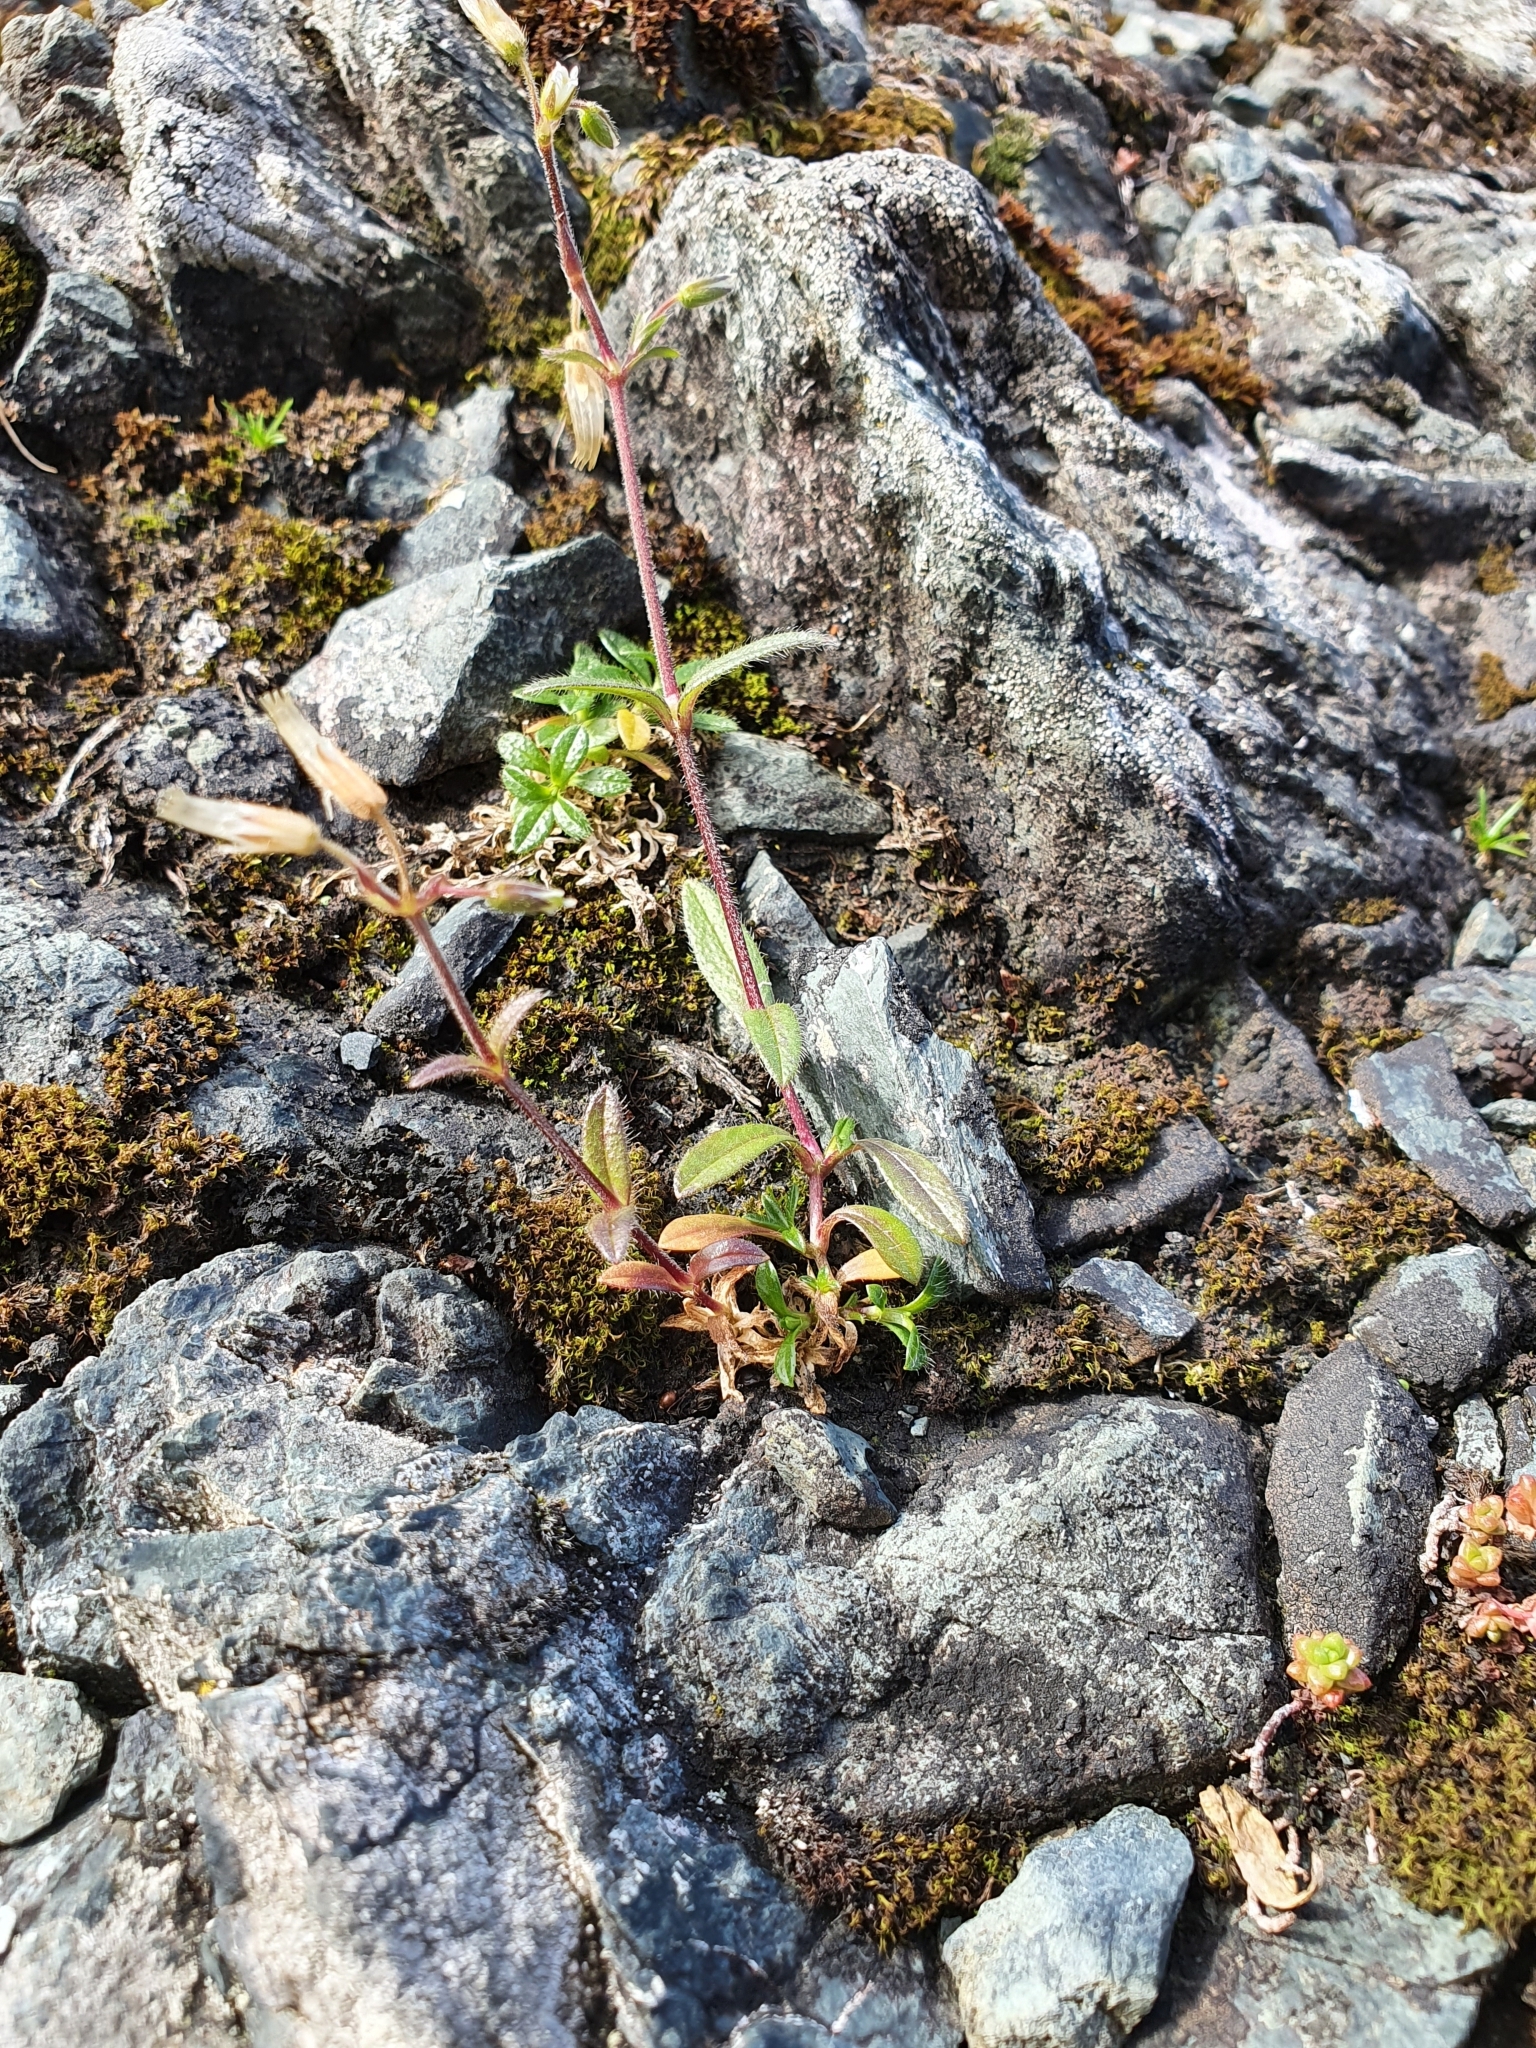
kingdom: Plantae
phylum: Tracheophyta
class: Magnoliopsida
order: Caryophyllales
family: Caryophyllaceae
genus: Cerastium
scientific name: Cerastium fontanum
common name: Common mouse-ear
